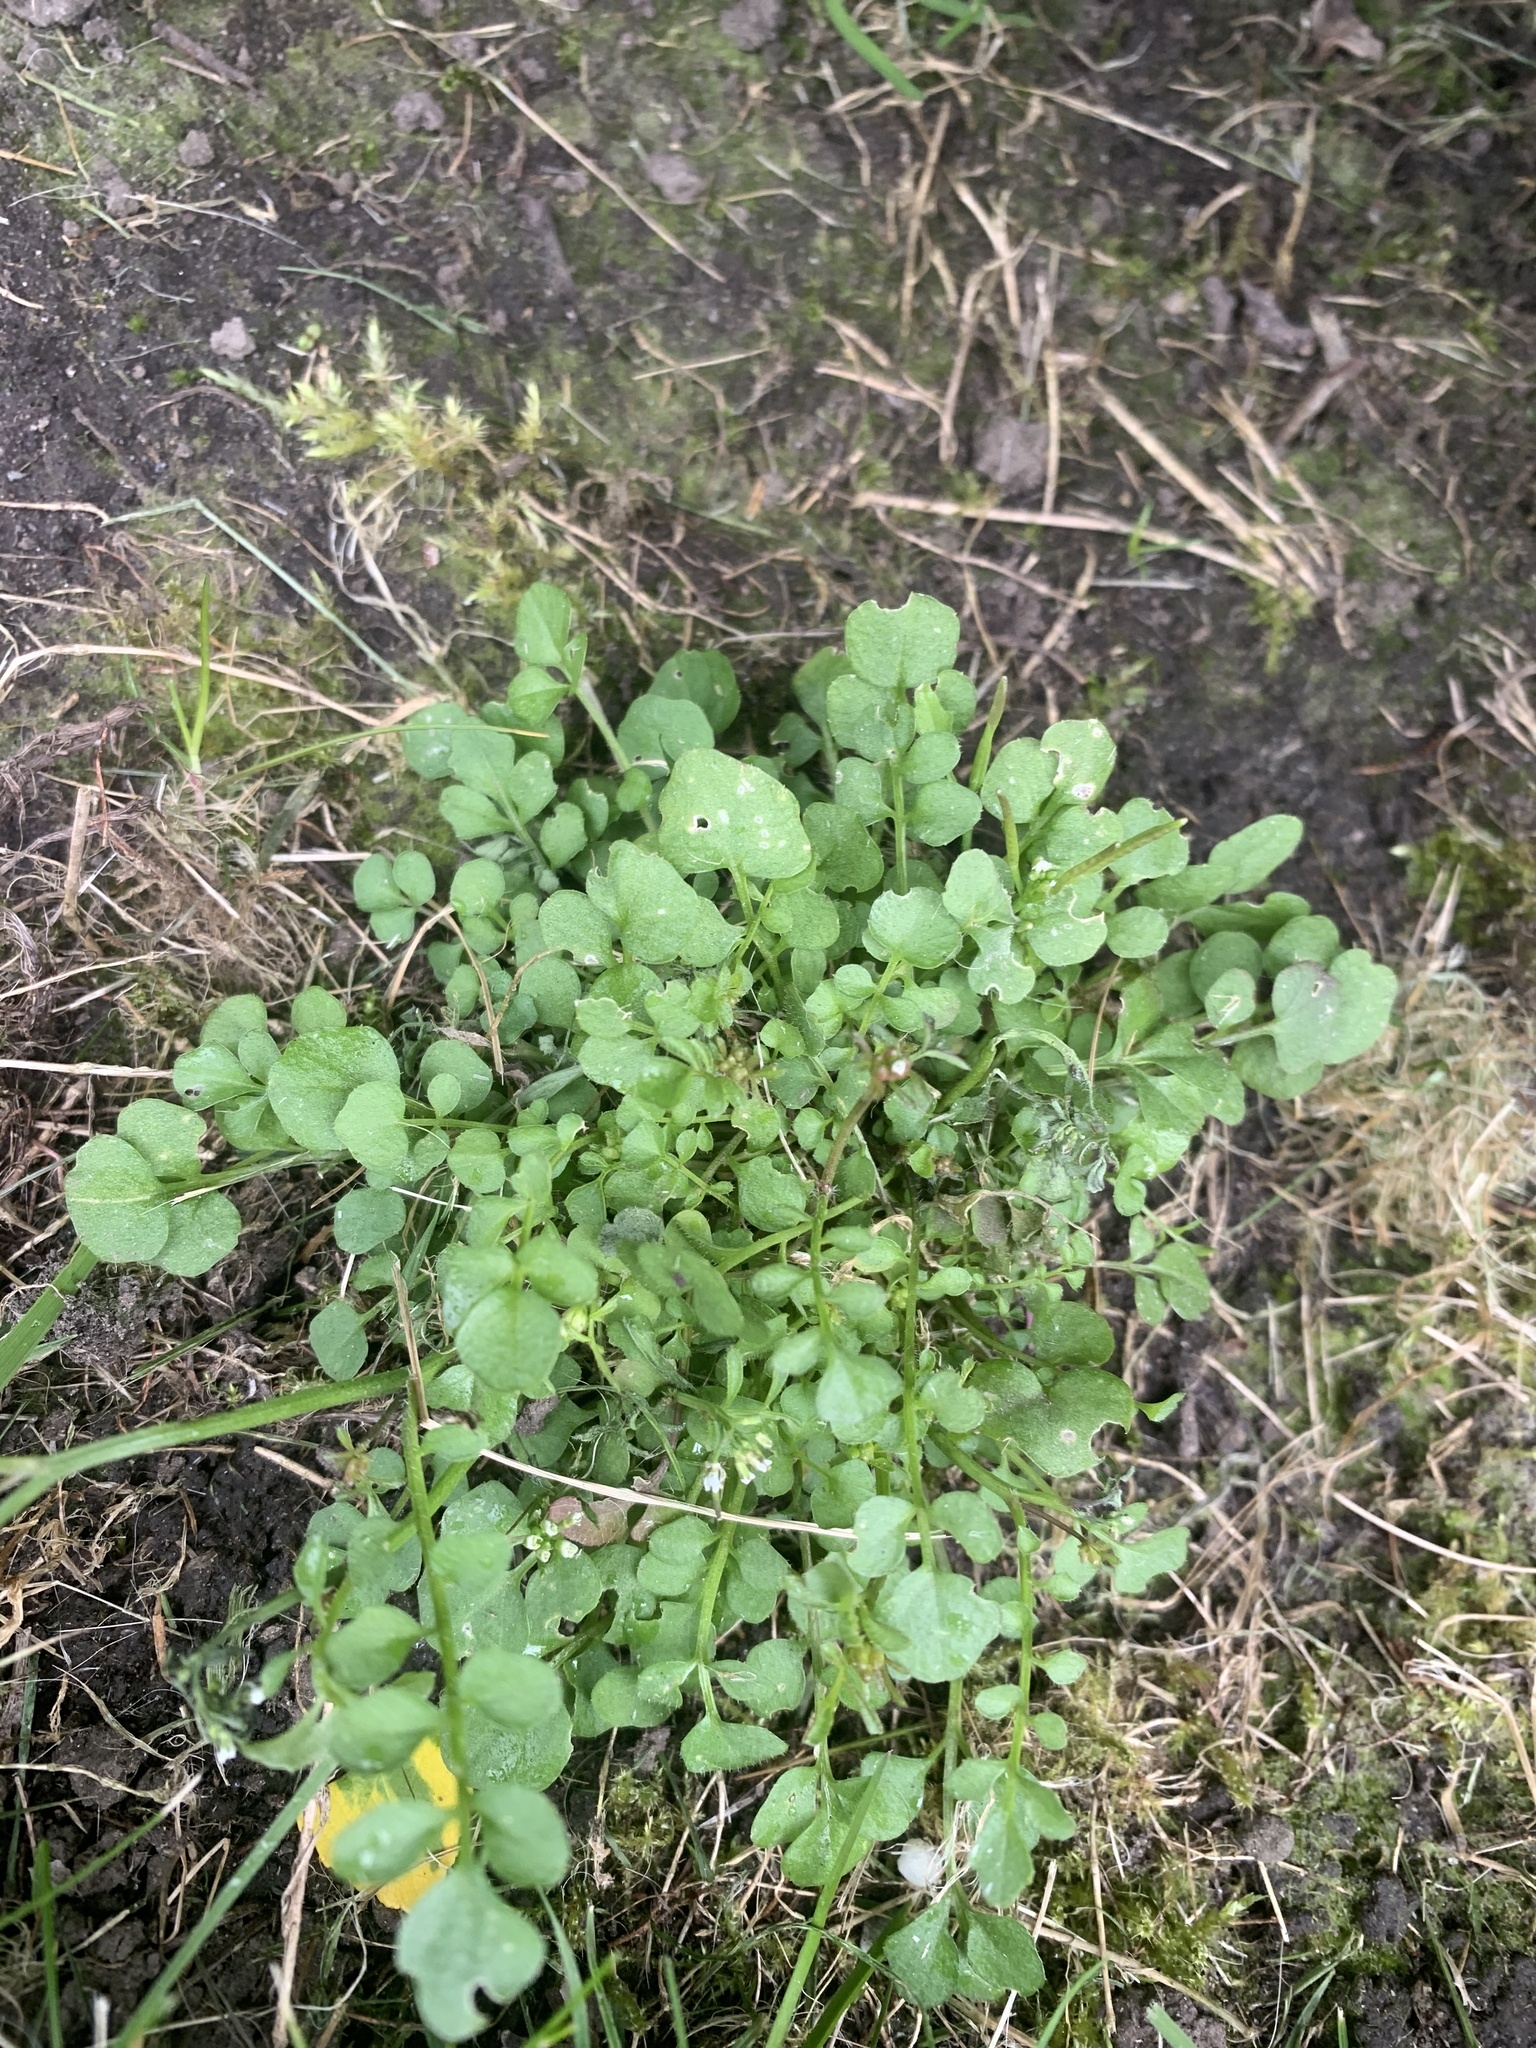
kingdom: Plantae
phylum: Tracheophyta
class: Magnoliopsida
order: Brassicales
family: Brassicaceae
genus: Cardamine
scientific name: Cardamine flexuosa
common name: Woodland bittercress
